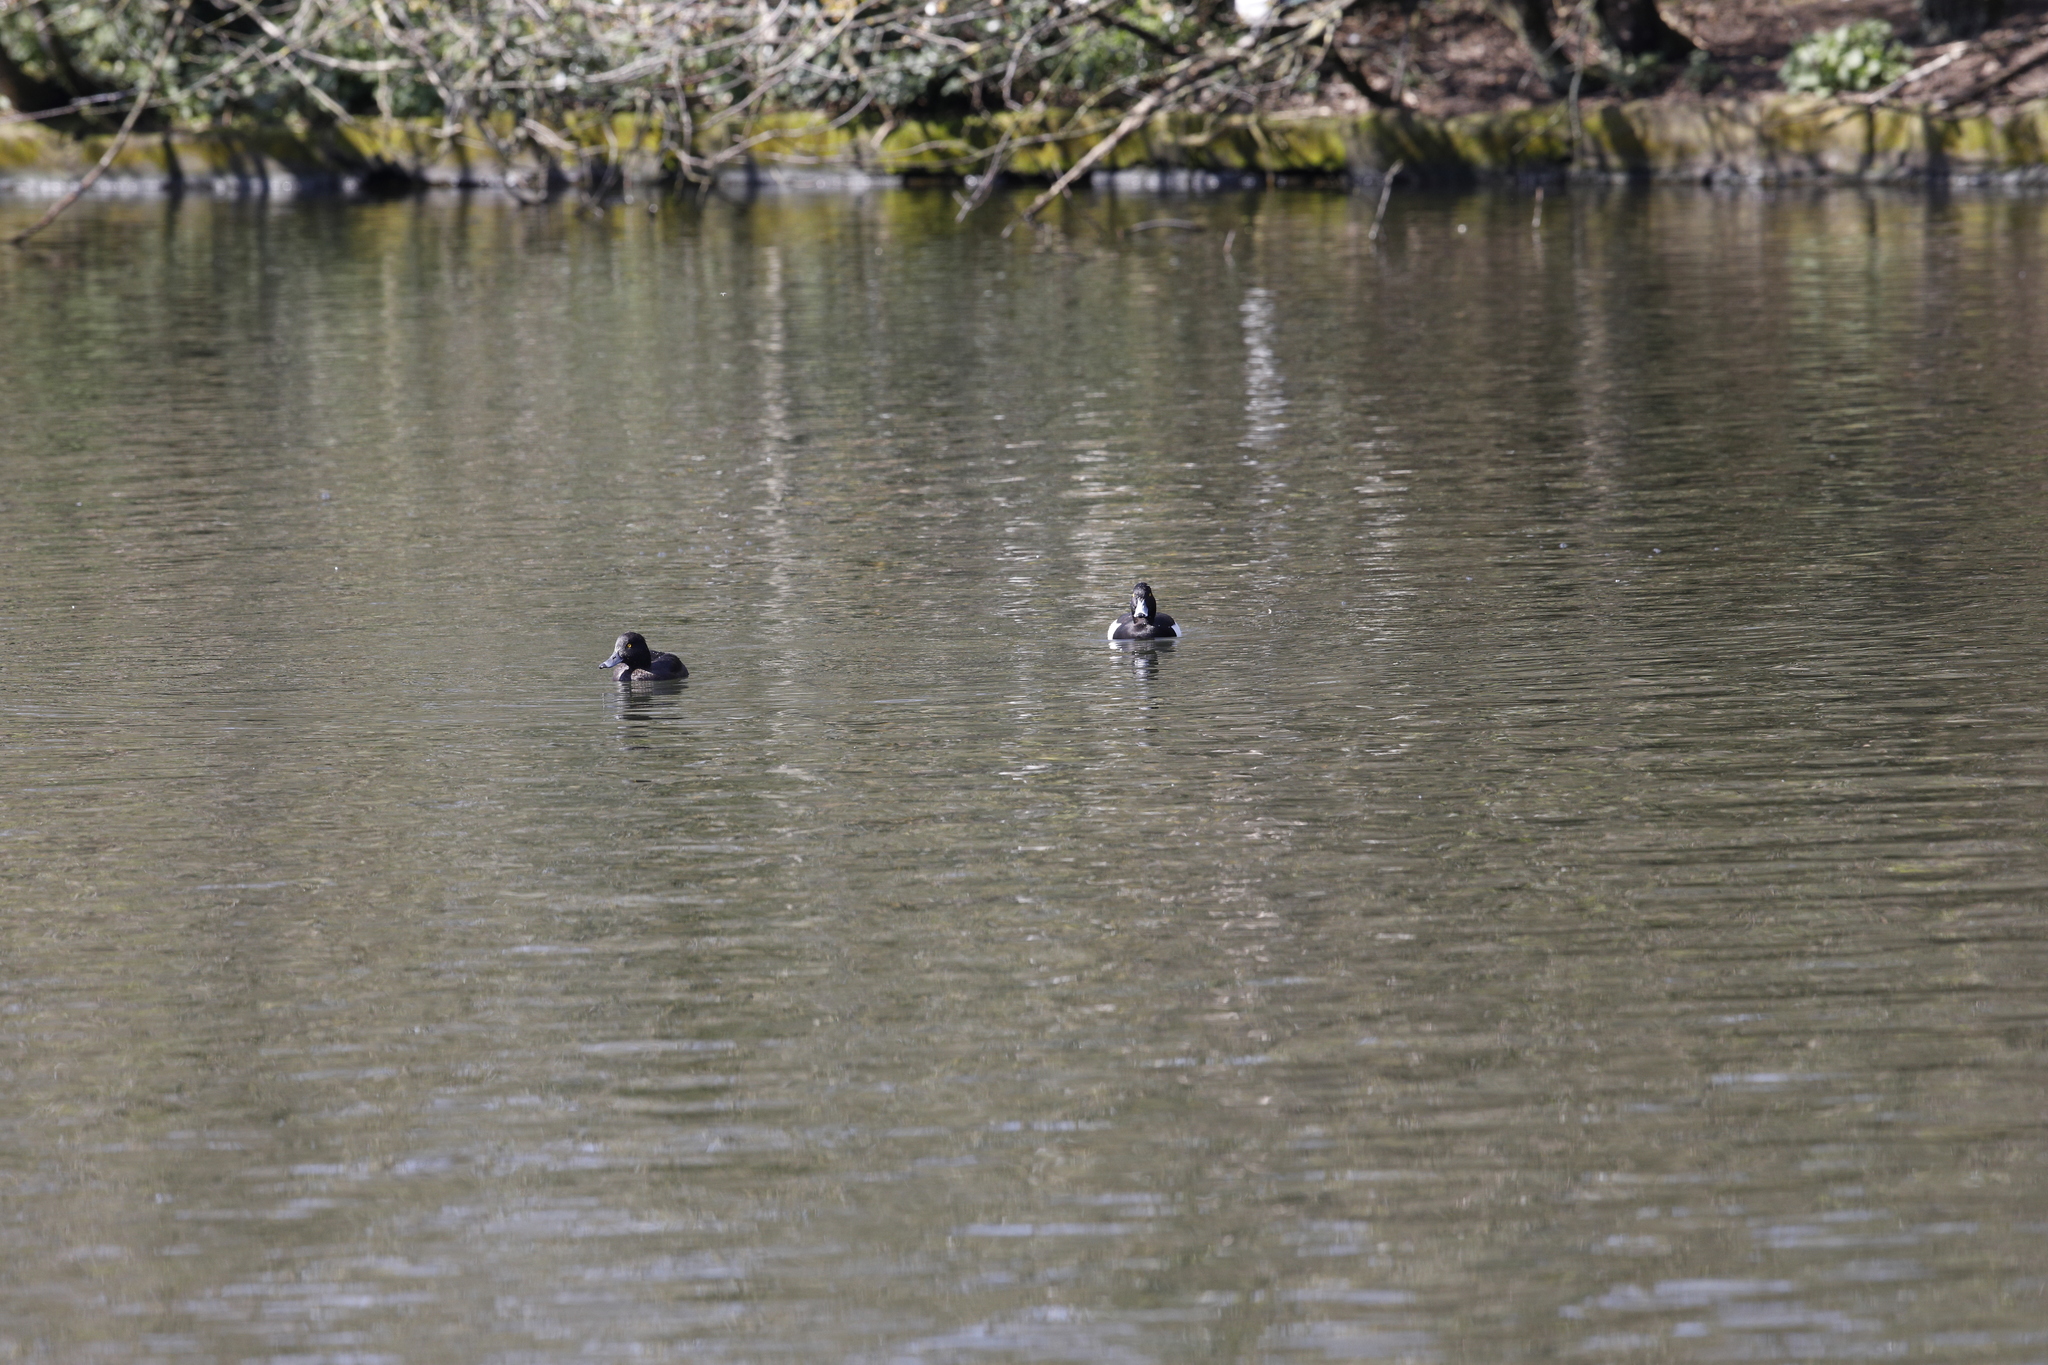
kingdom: Animalia
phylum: Chordata
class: Aves
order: Anseriformes
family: Anatidae
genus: Aythya
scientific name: Aythya fuligula
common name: Tufted duck
